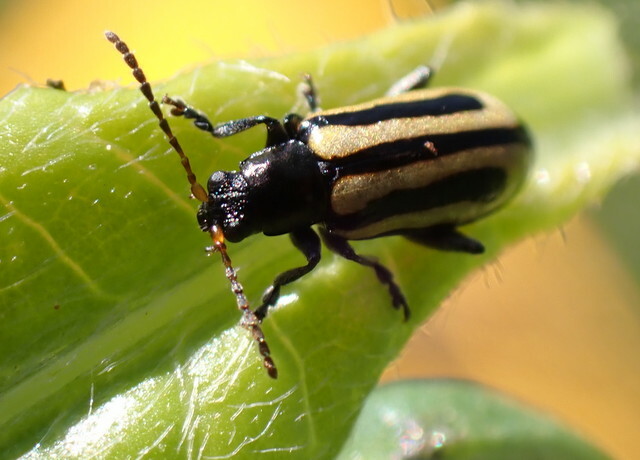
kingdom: Animalia
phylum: Arthropoda
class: Insecta
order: Coleoptera
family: Chrysomelidae
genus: Agasicles
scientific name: Agasicles hygrophila
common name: Alligatorweed flea beetle
